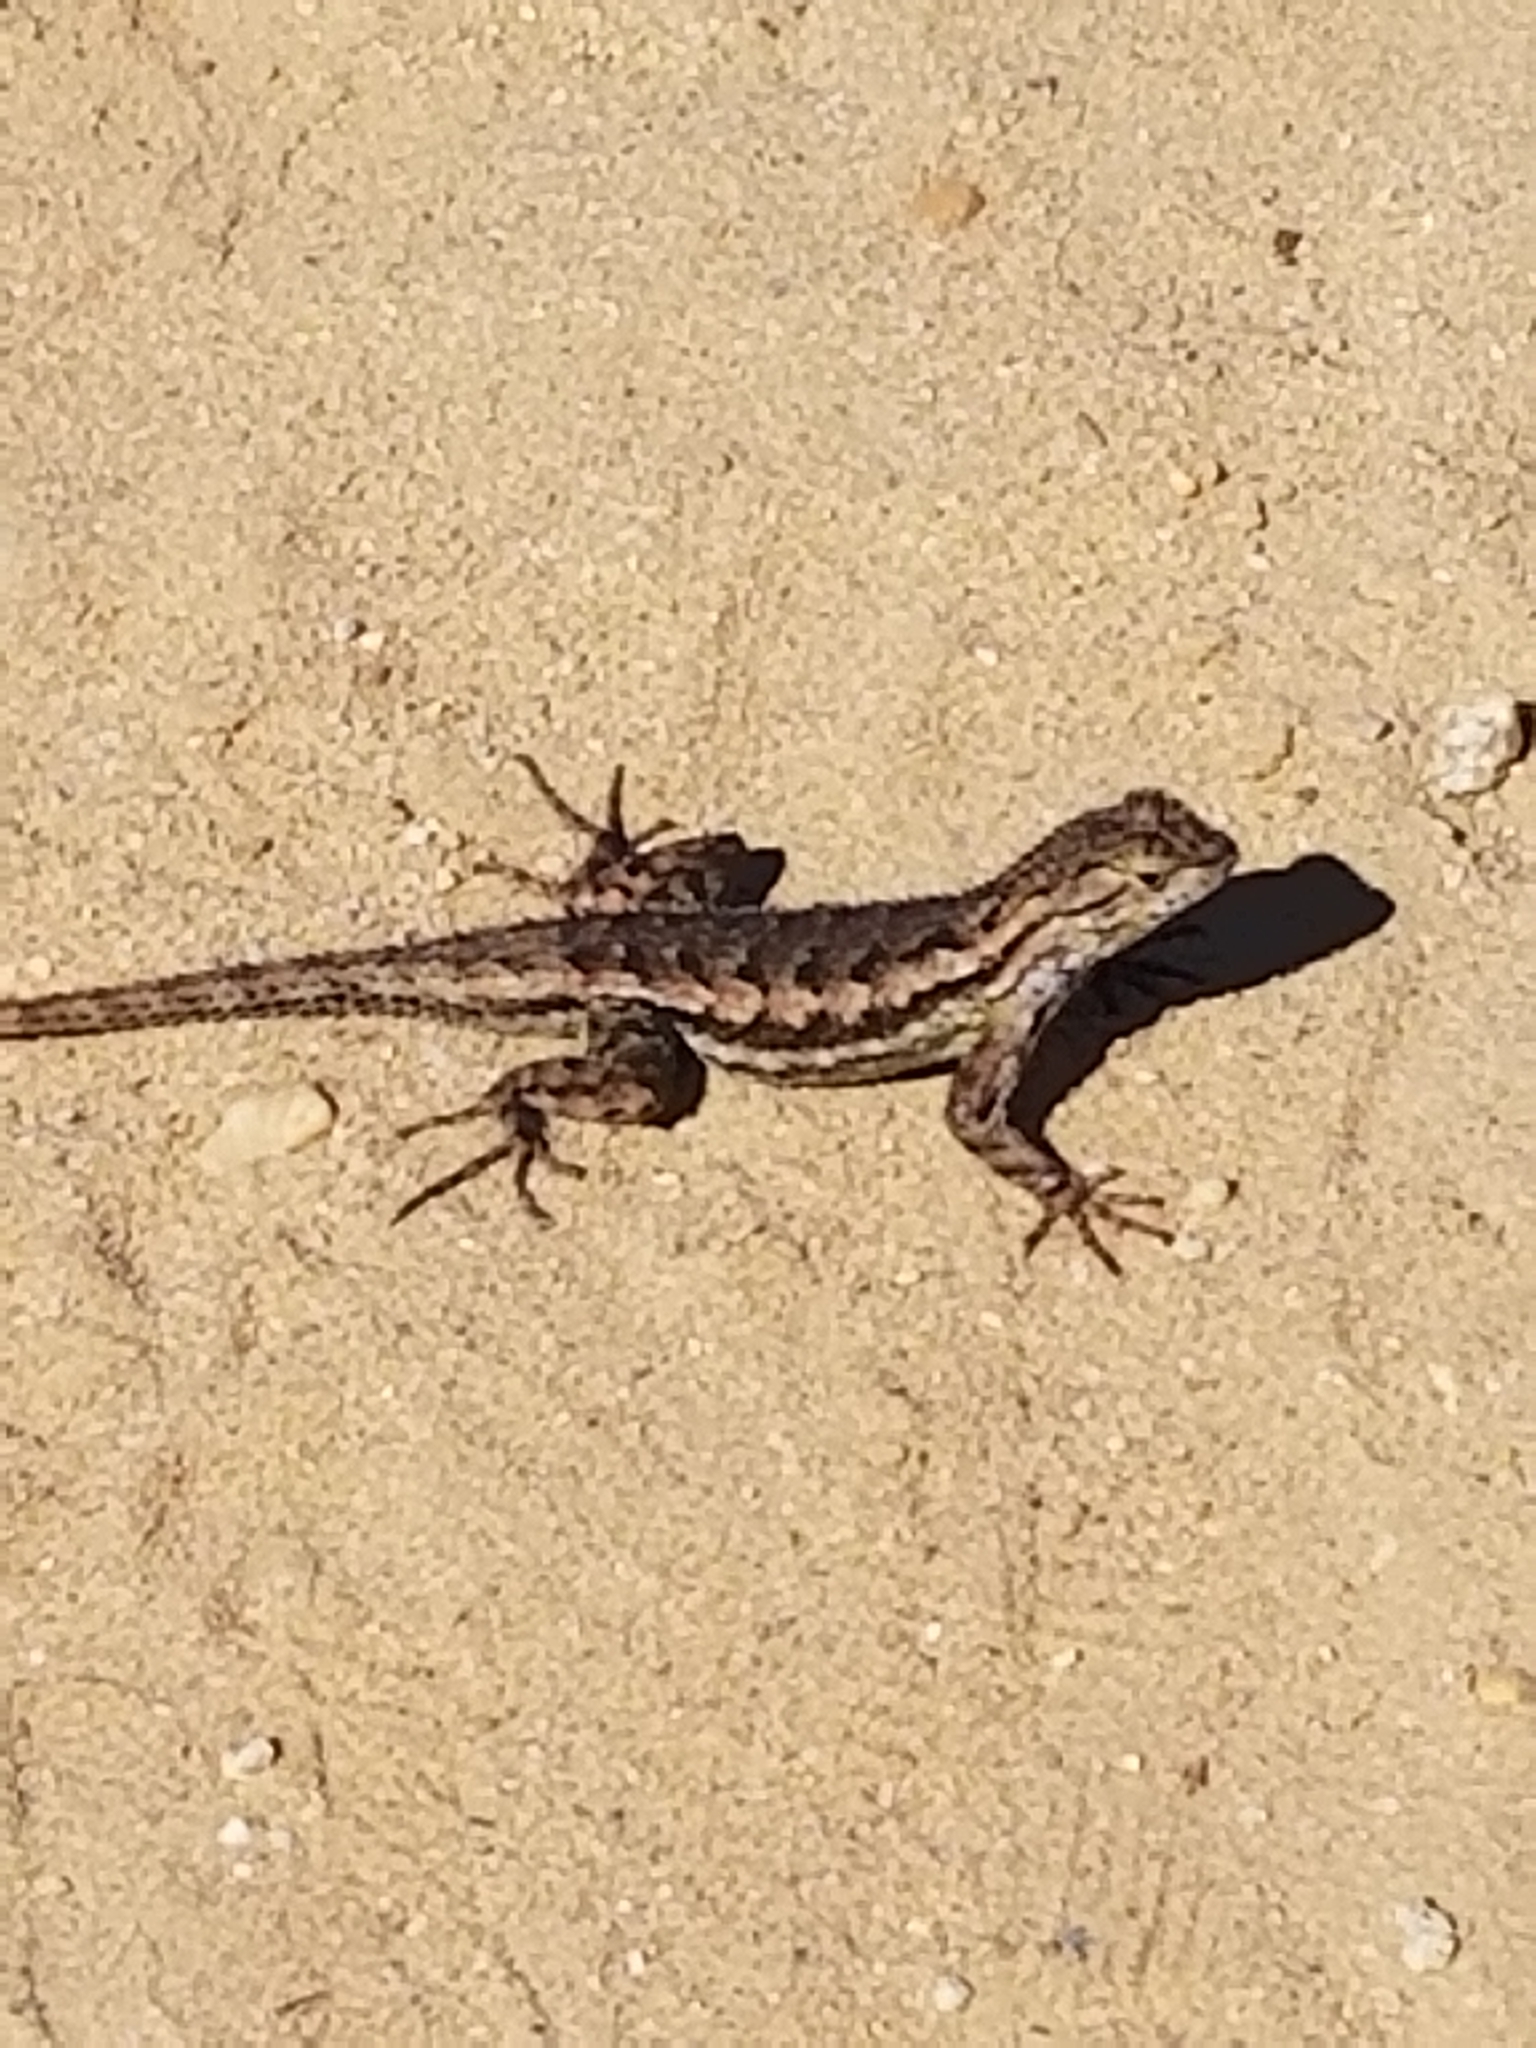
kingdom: Animalia
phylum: Chordata
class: Squamata
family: Phrynosomatidae
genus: Sceloporus
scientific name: Sceloporus occidentalis
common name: Western fence lizard
